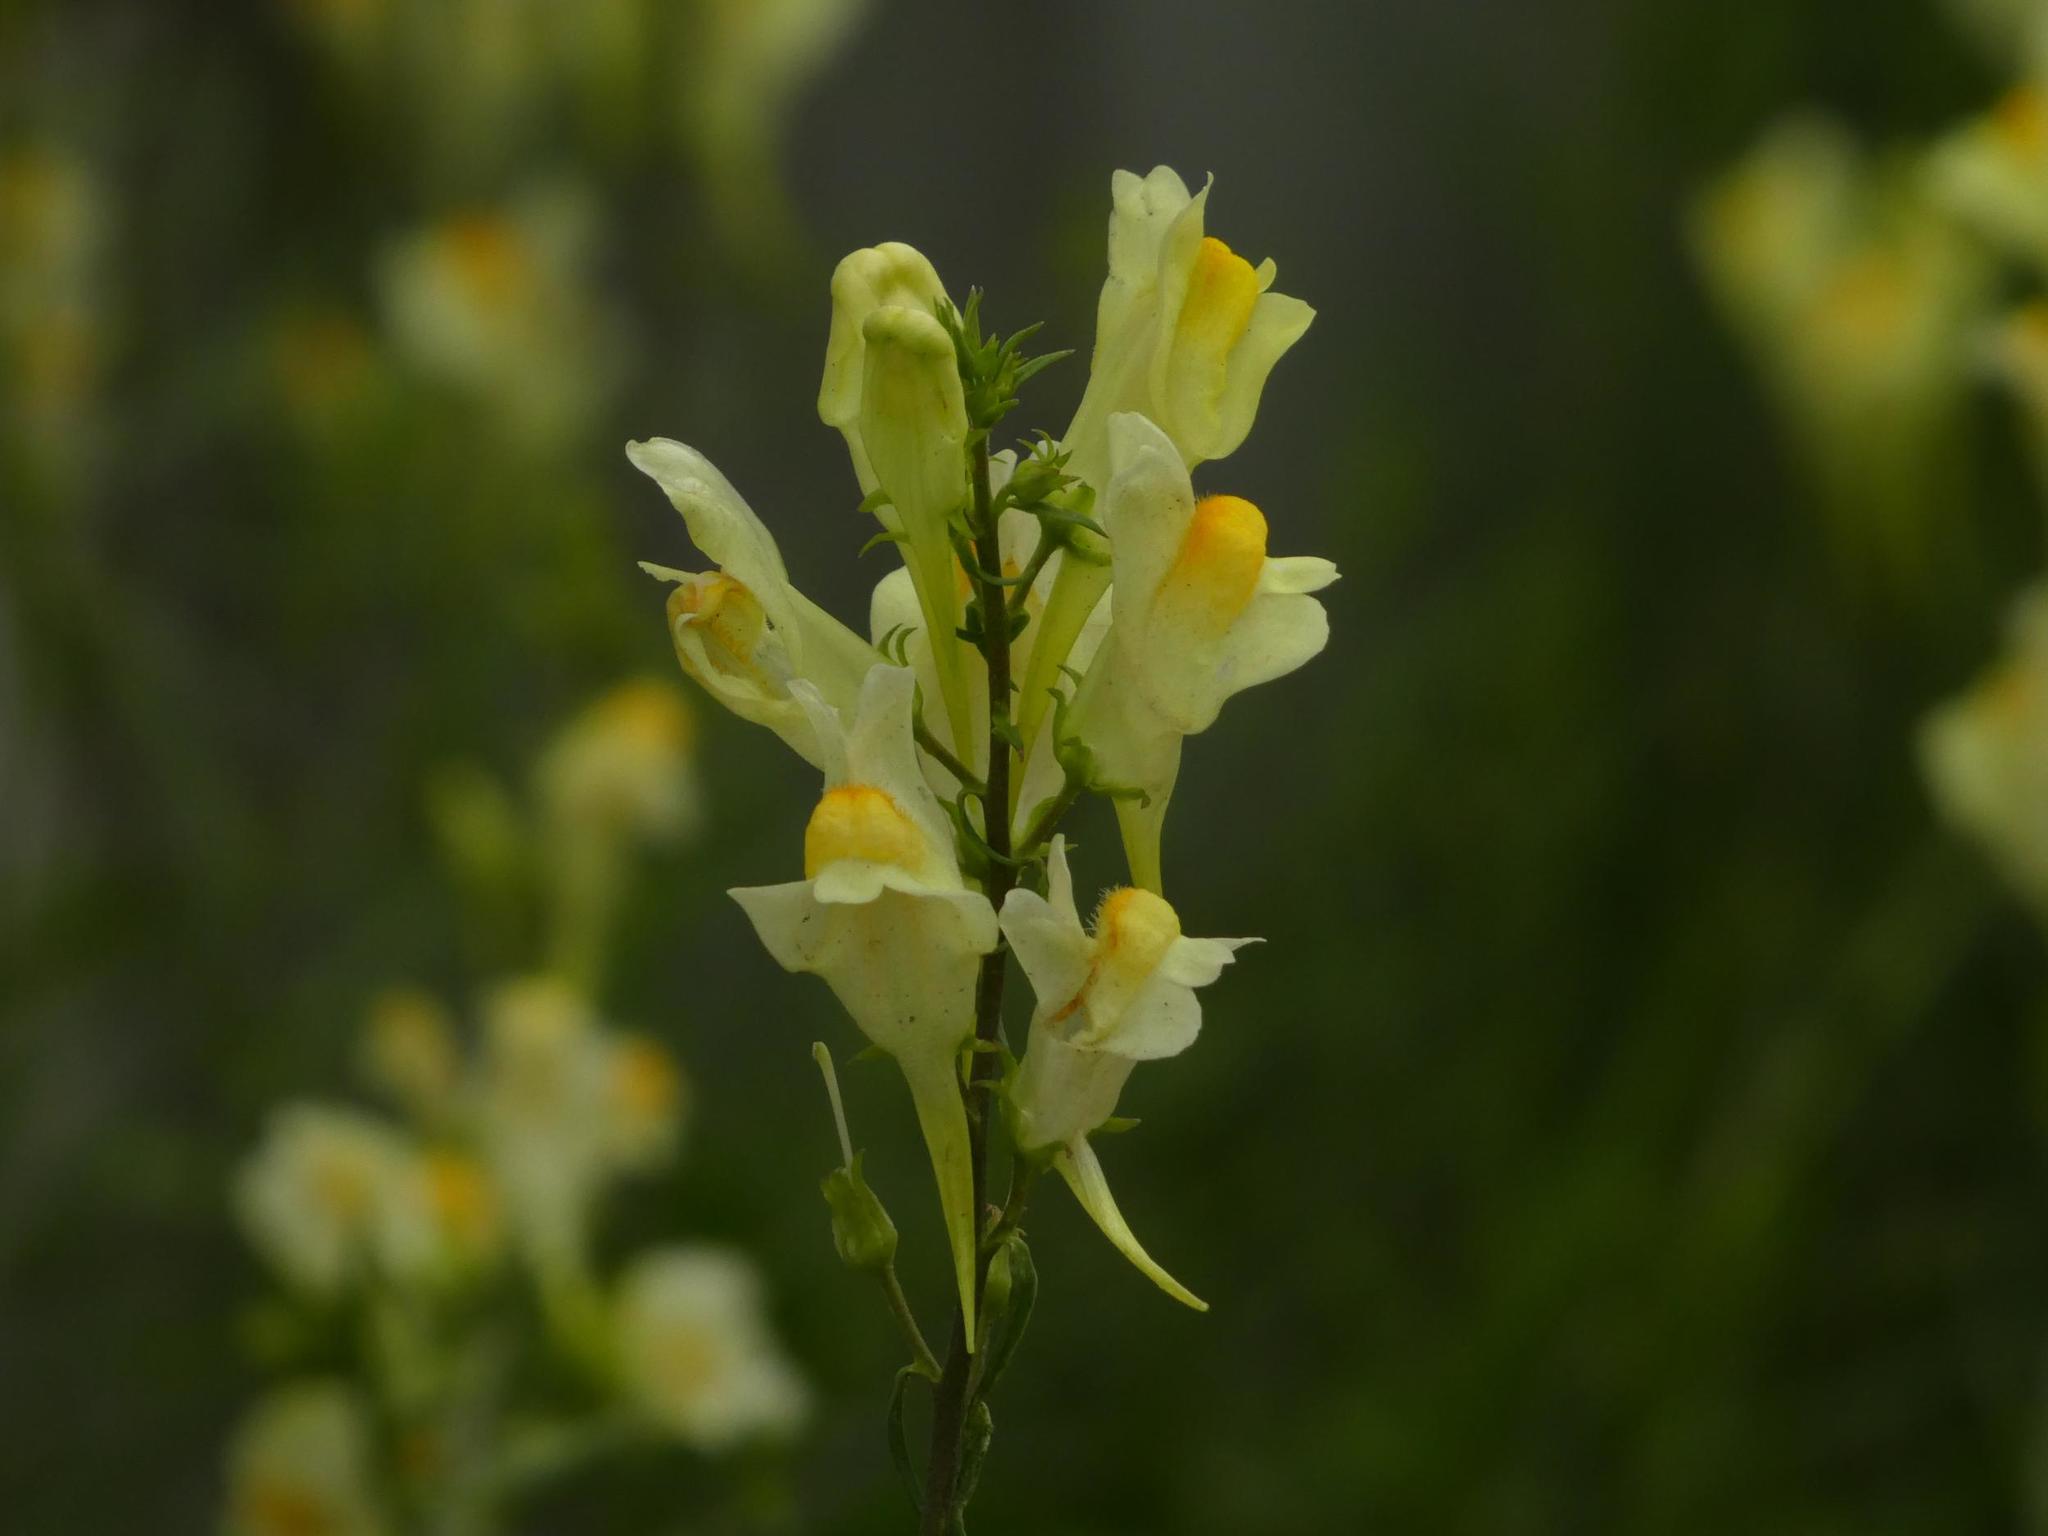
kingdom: Plantae
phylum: Tracheophyta
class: Magnoliopsida
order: Lamiales
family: Plantaginaceae
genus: Linaria
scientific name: Linaria vulgaris
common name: Butter and eggs
